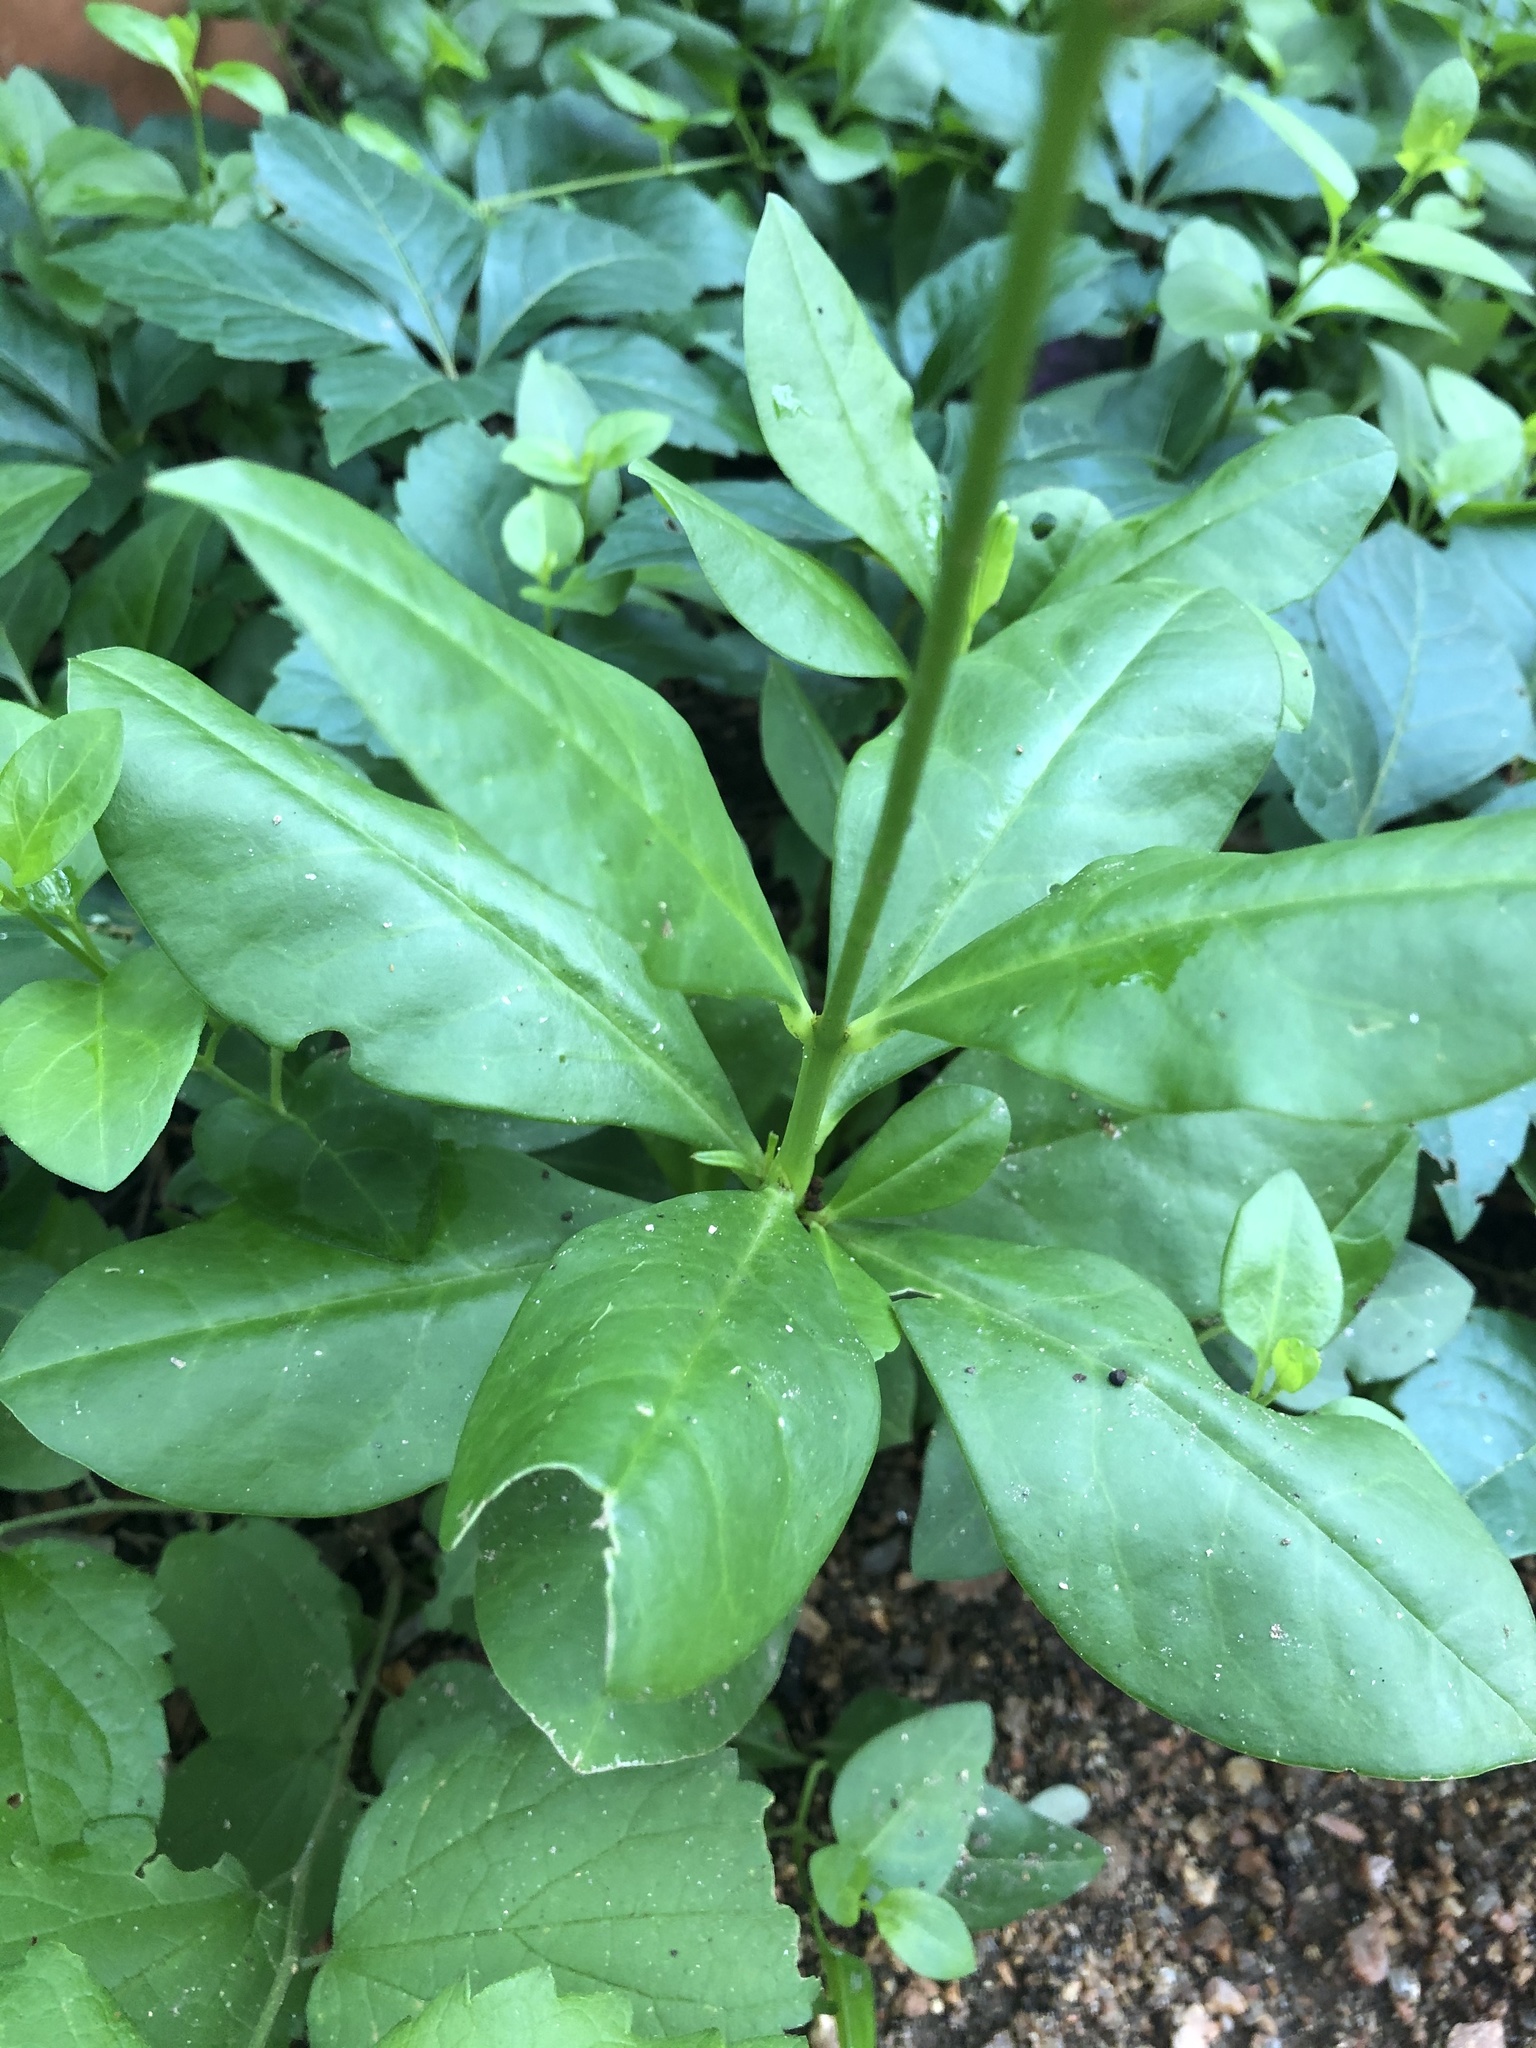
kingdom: Plantae
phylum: Tracheophyta
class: Magnoliopsida
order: Caryophyllales
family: Talinaceae
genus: Talinum
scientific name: Talinum paniculatum
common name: Jewels of opar
